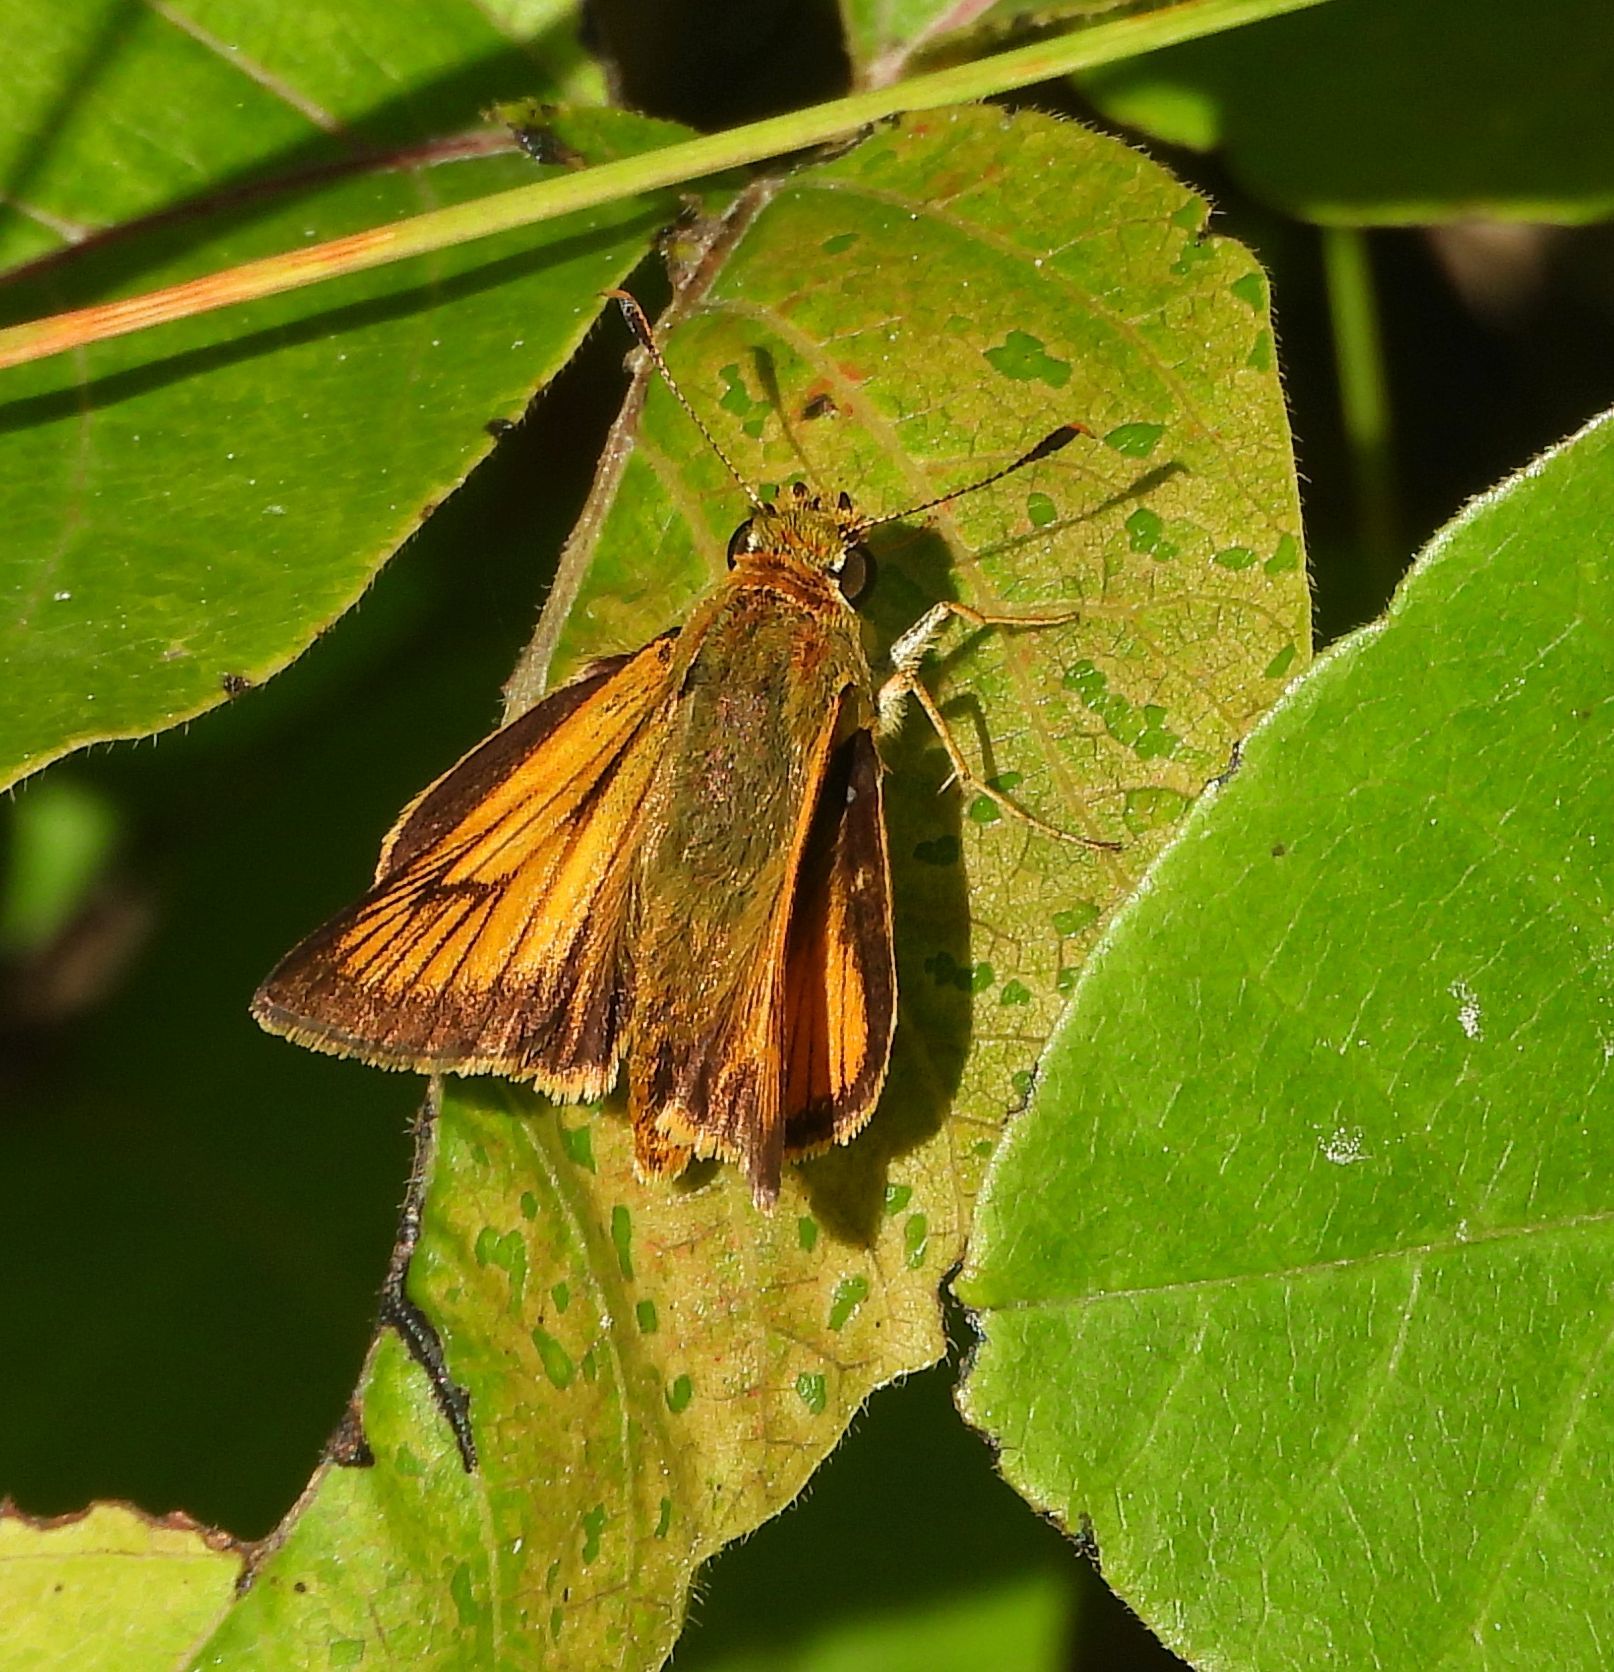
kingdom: Animalia
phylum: Arthropoda
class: Insecta
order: Lepidoptera
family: Hesperiidae
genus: Atrytone
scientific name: Atrytone delaware
